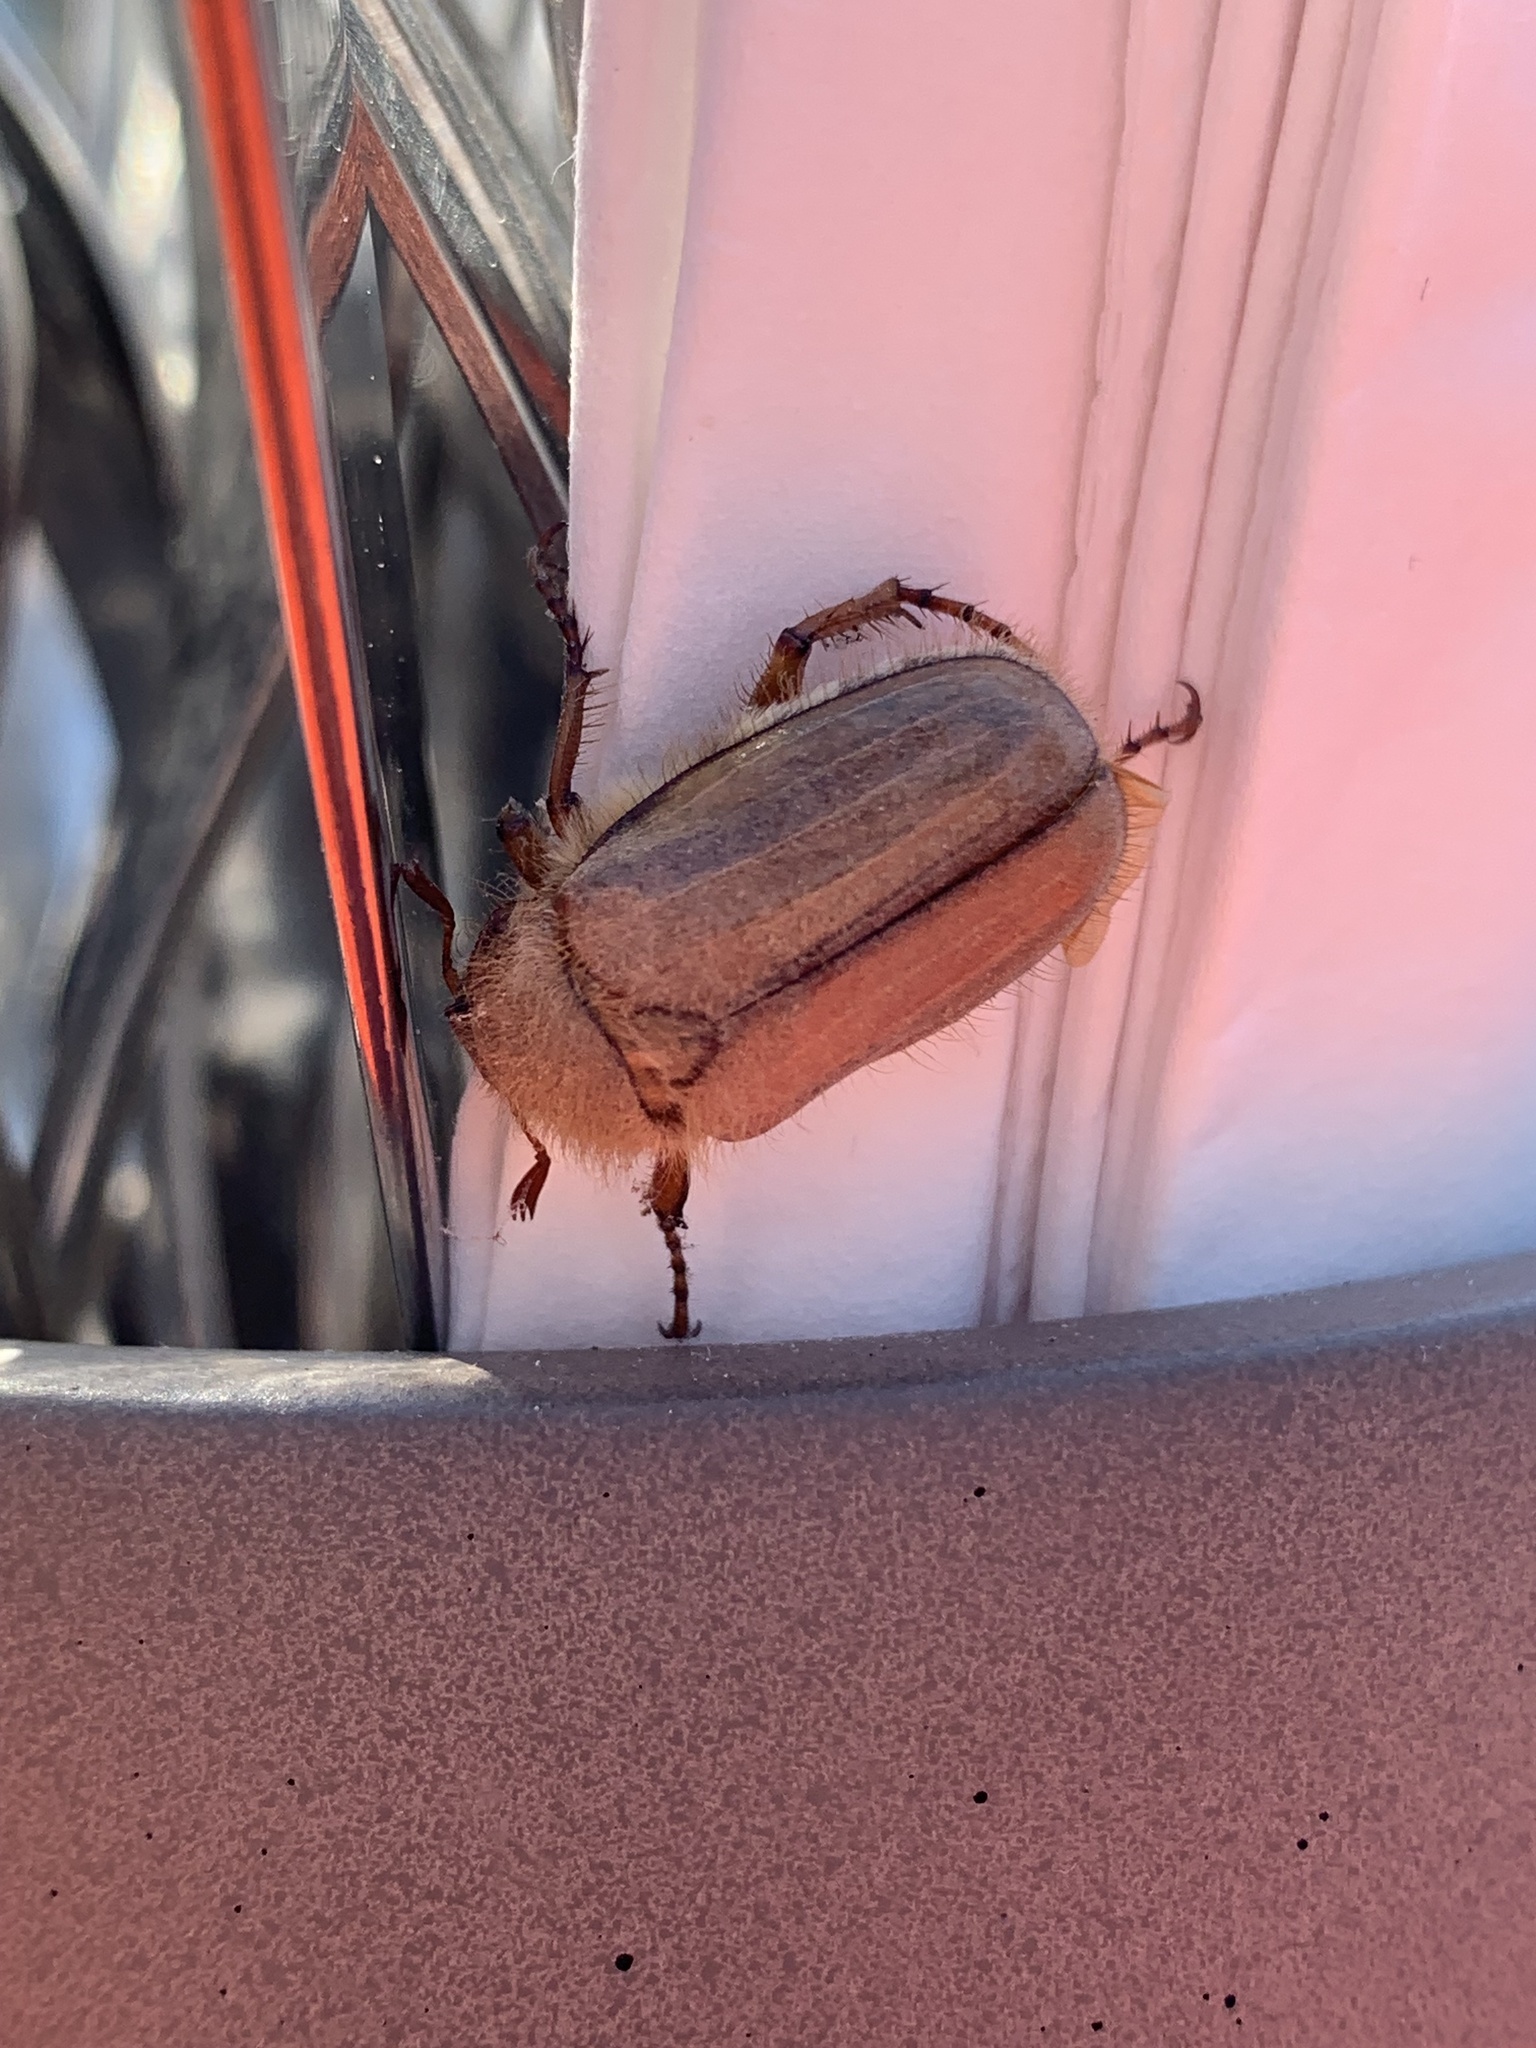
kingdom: Animalia
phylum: Arthropoda
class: Insecta
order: Coleoptera
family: Scarabaeidae
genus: Amphimallon
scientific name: Amphimallon solstitiale
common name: Summer chafer
